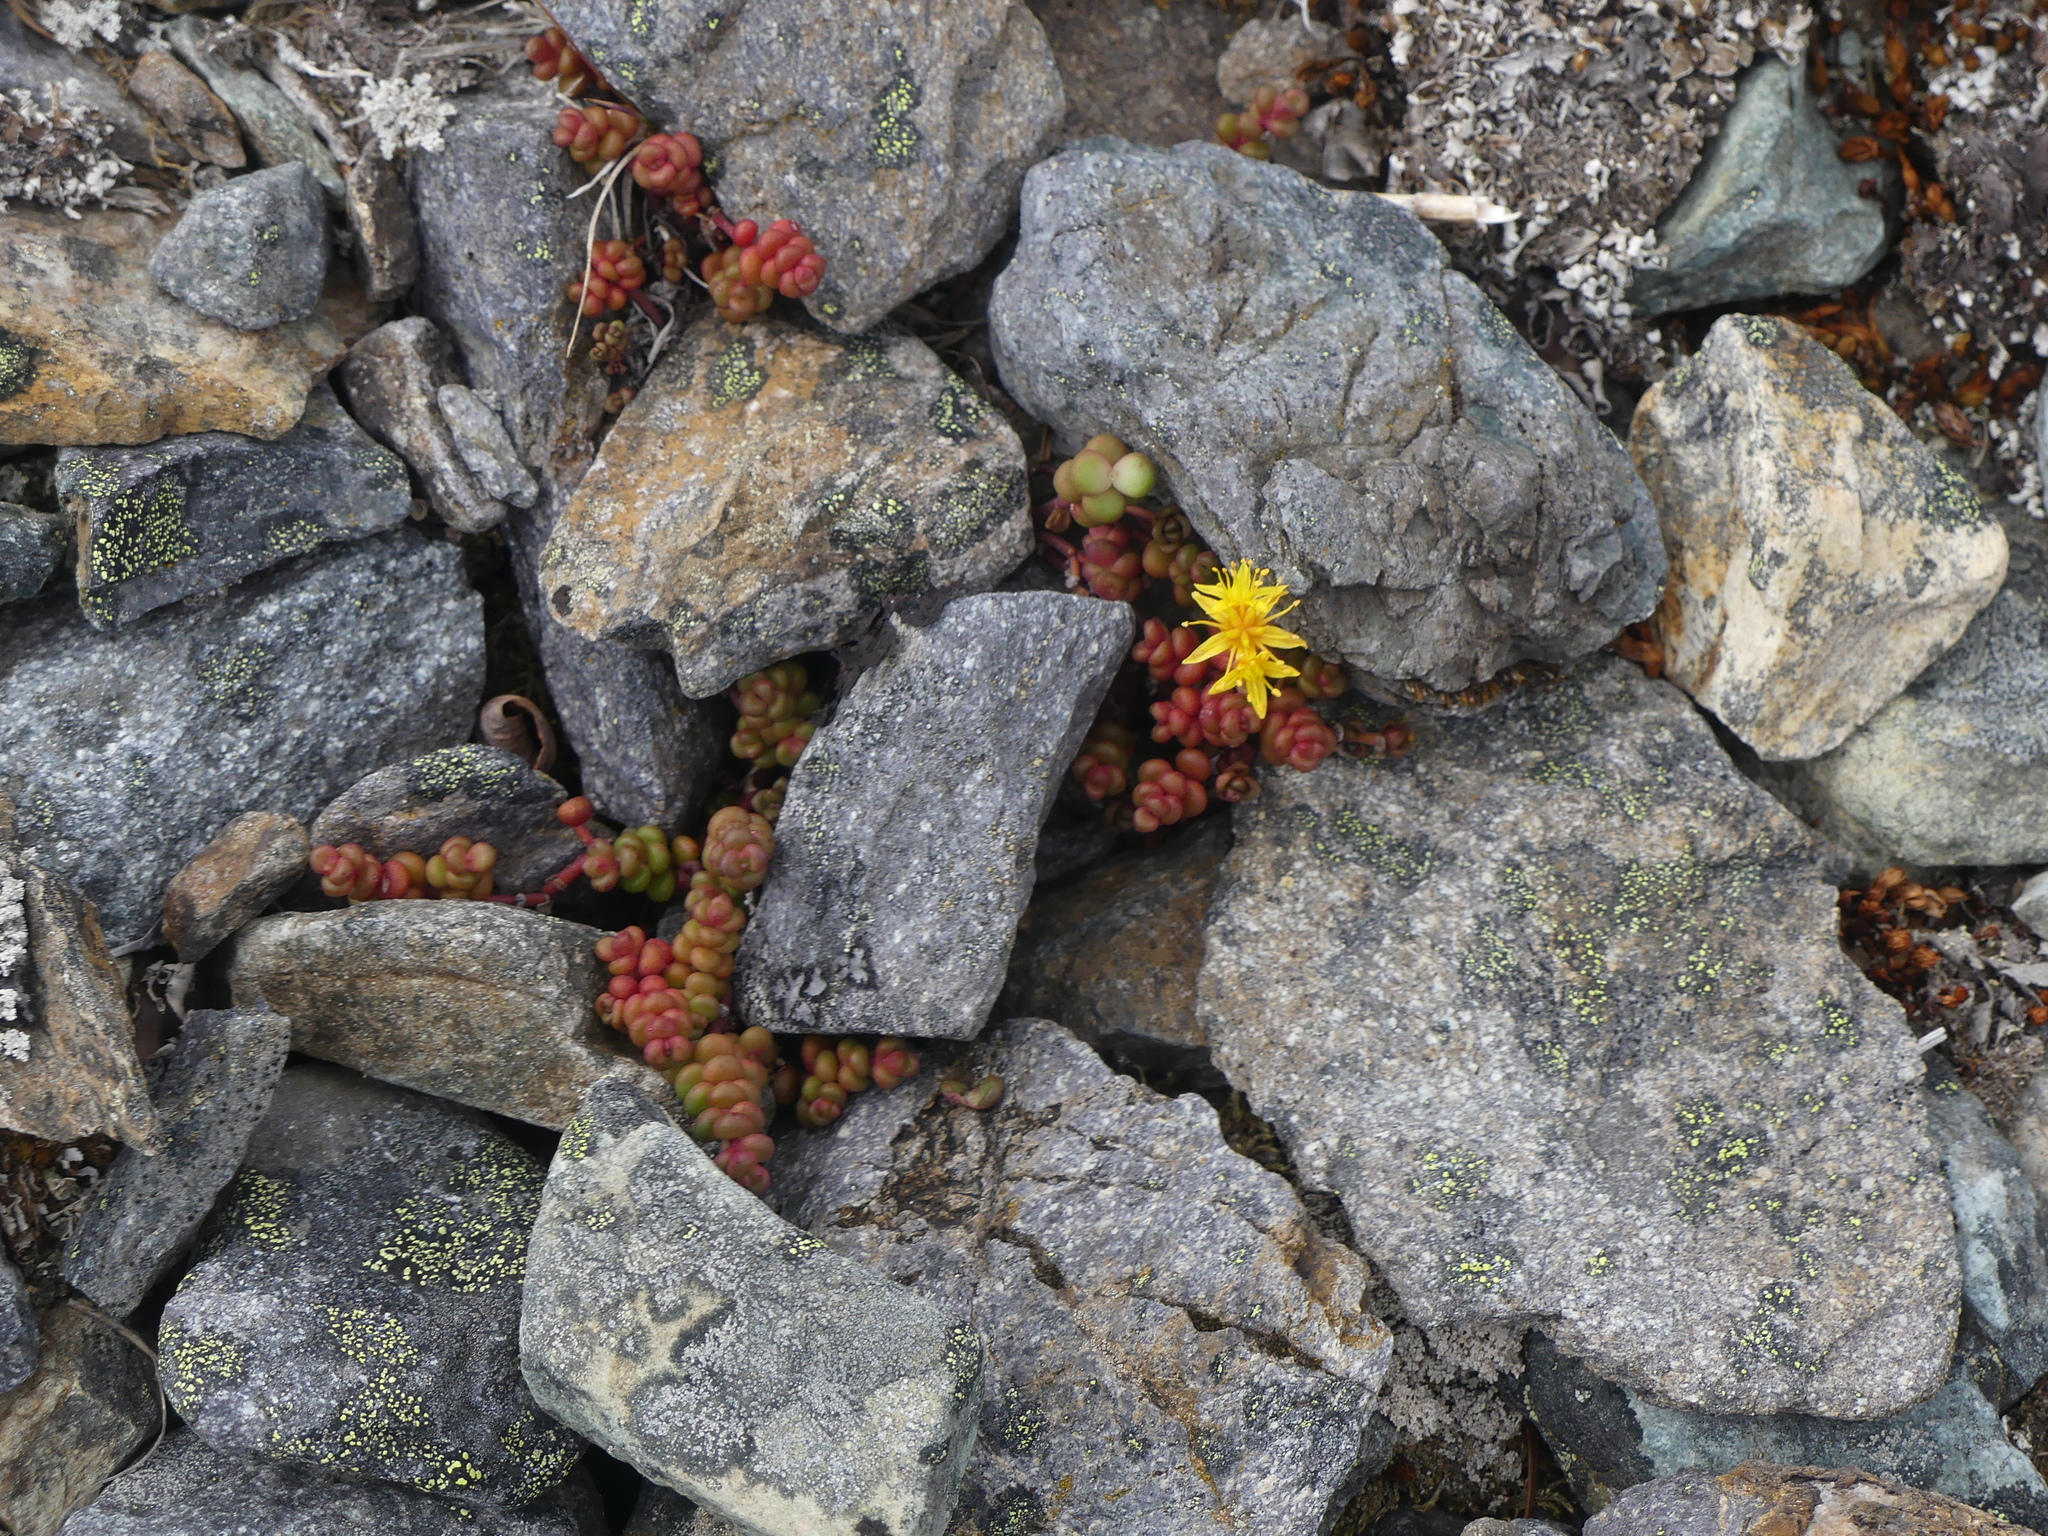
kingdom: Plantae
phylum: Tracheophyta
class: Magnoliopsida
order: Saxifragales
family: Crassulaceae
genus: Sedum
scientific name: Sedum divergens
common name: Cascade stonecrop
